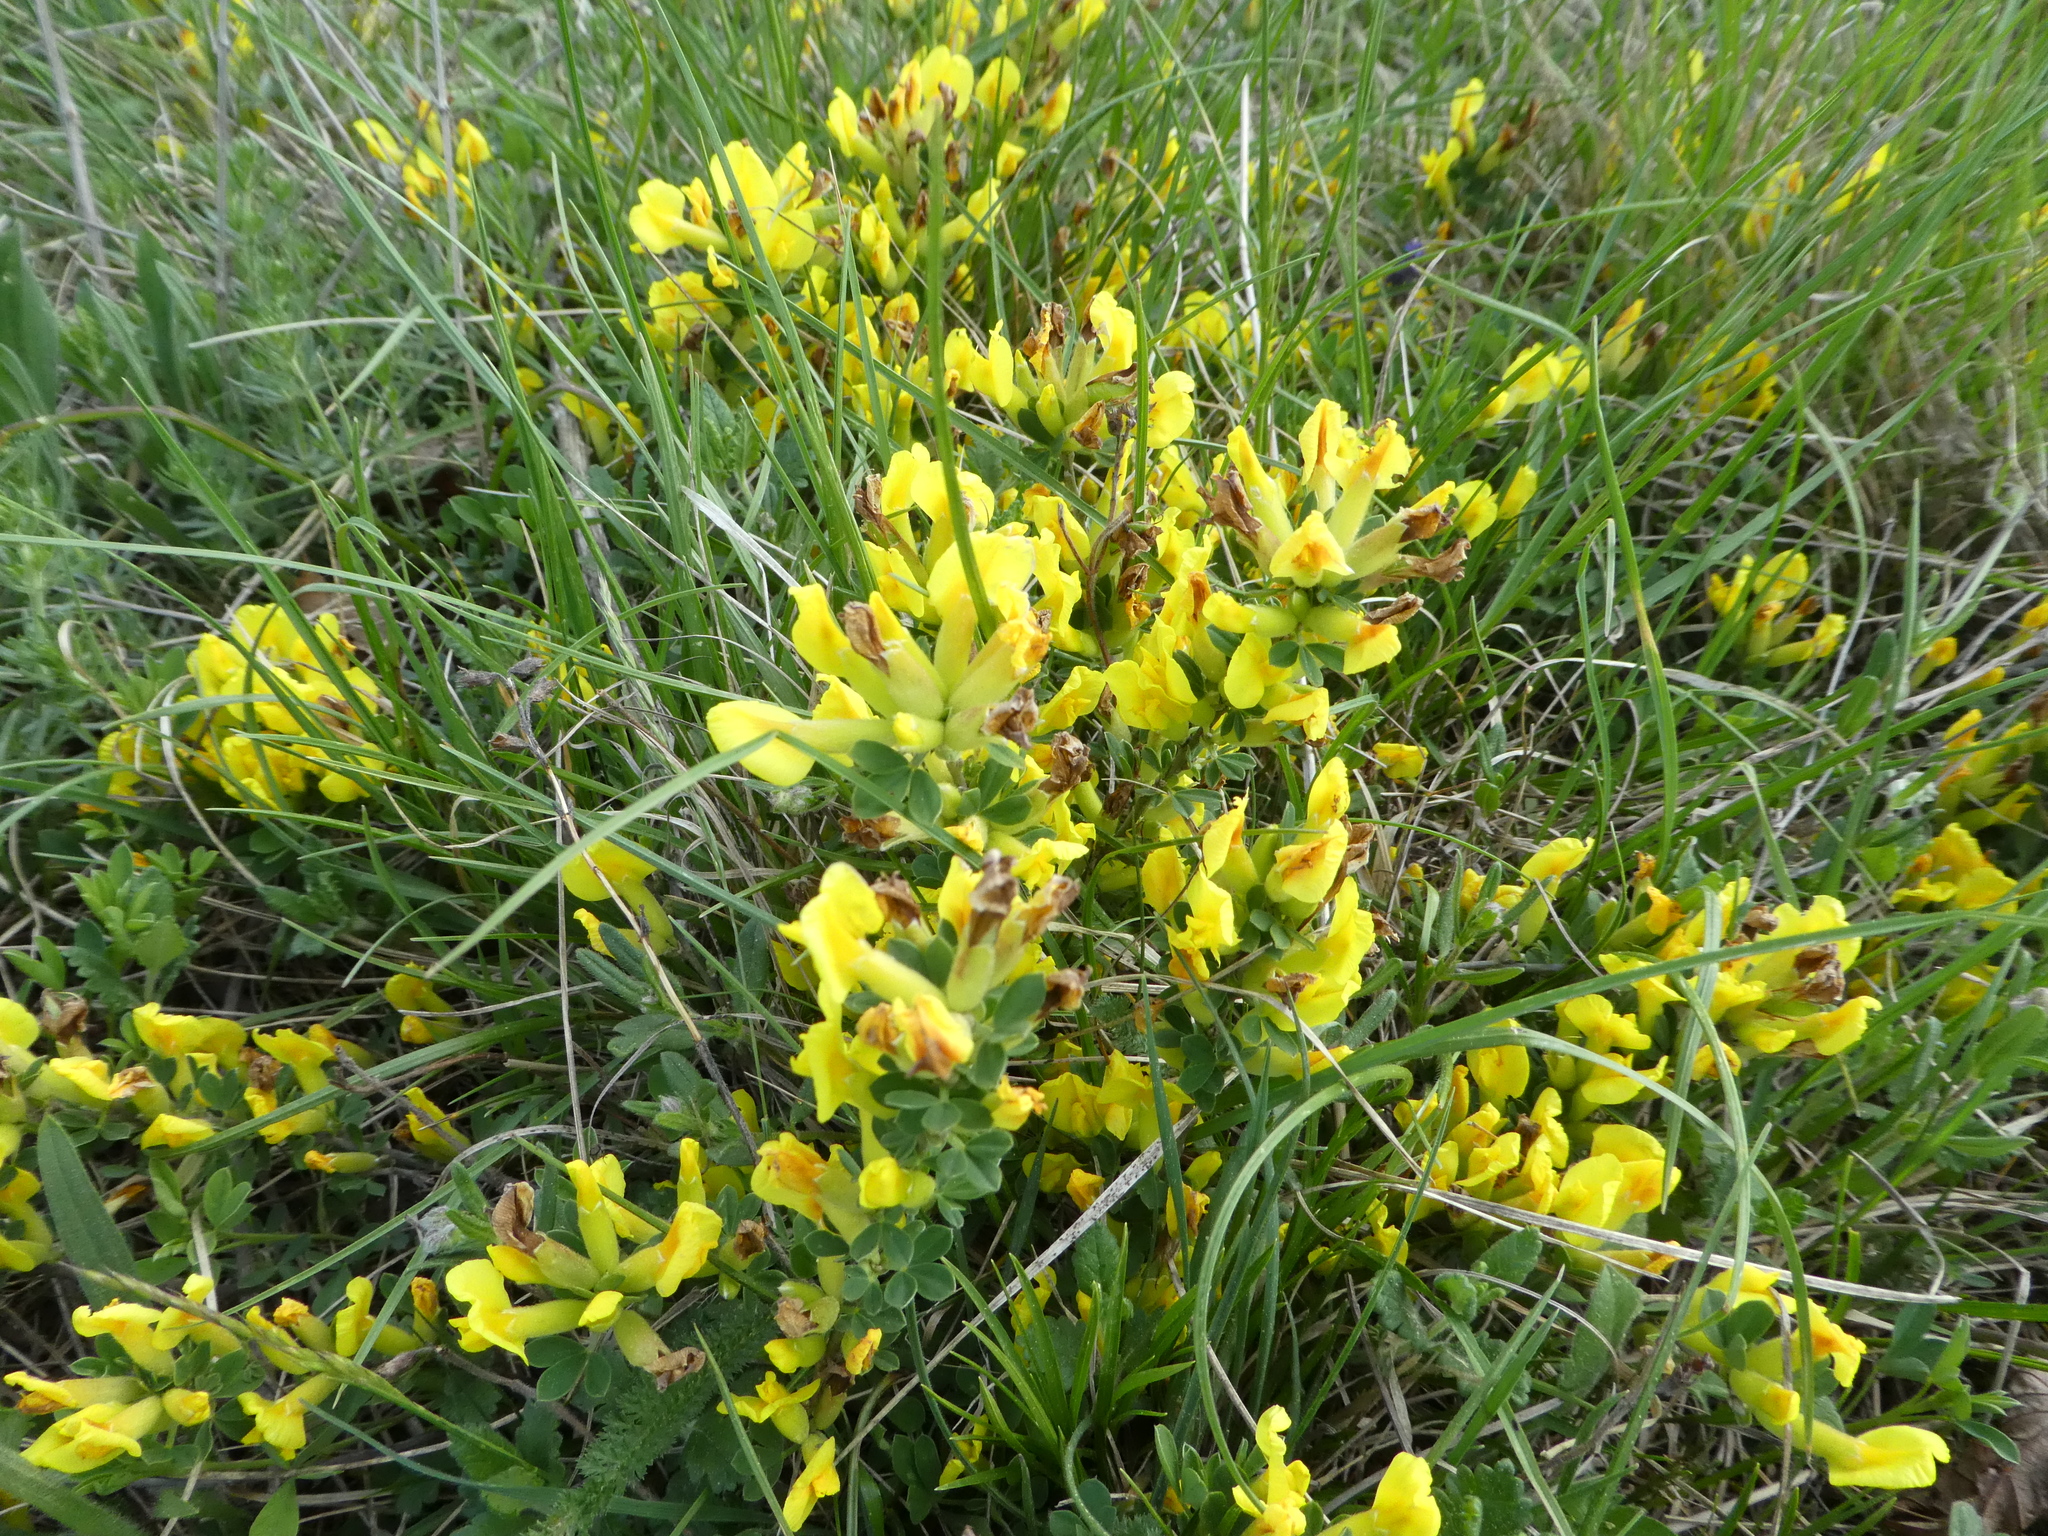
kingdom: Plantae
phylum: Tracheophyta
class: Magnoliopsida
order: Fabales
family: Fabaceae
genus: Chamaecytisus
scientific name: Chamaecytisus ratisbonensis
